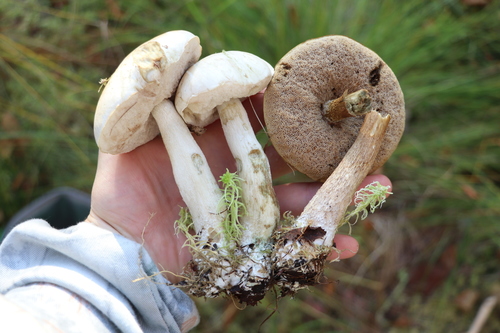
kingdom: Fungi
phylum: Basidiomycota
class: Agaricomycetes
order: Boletales
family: Boletaceae
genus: Leccinum
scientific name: Leccinum holopus
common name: Ghost bolete
